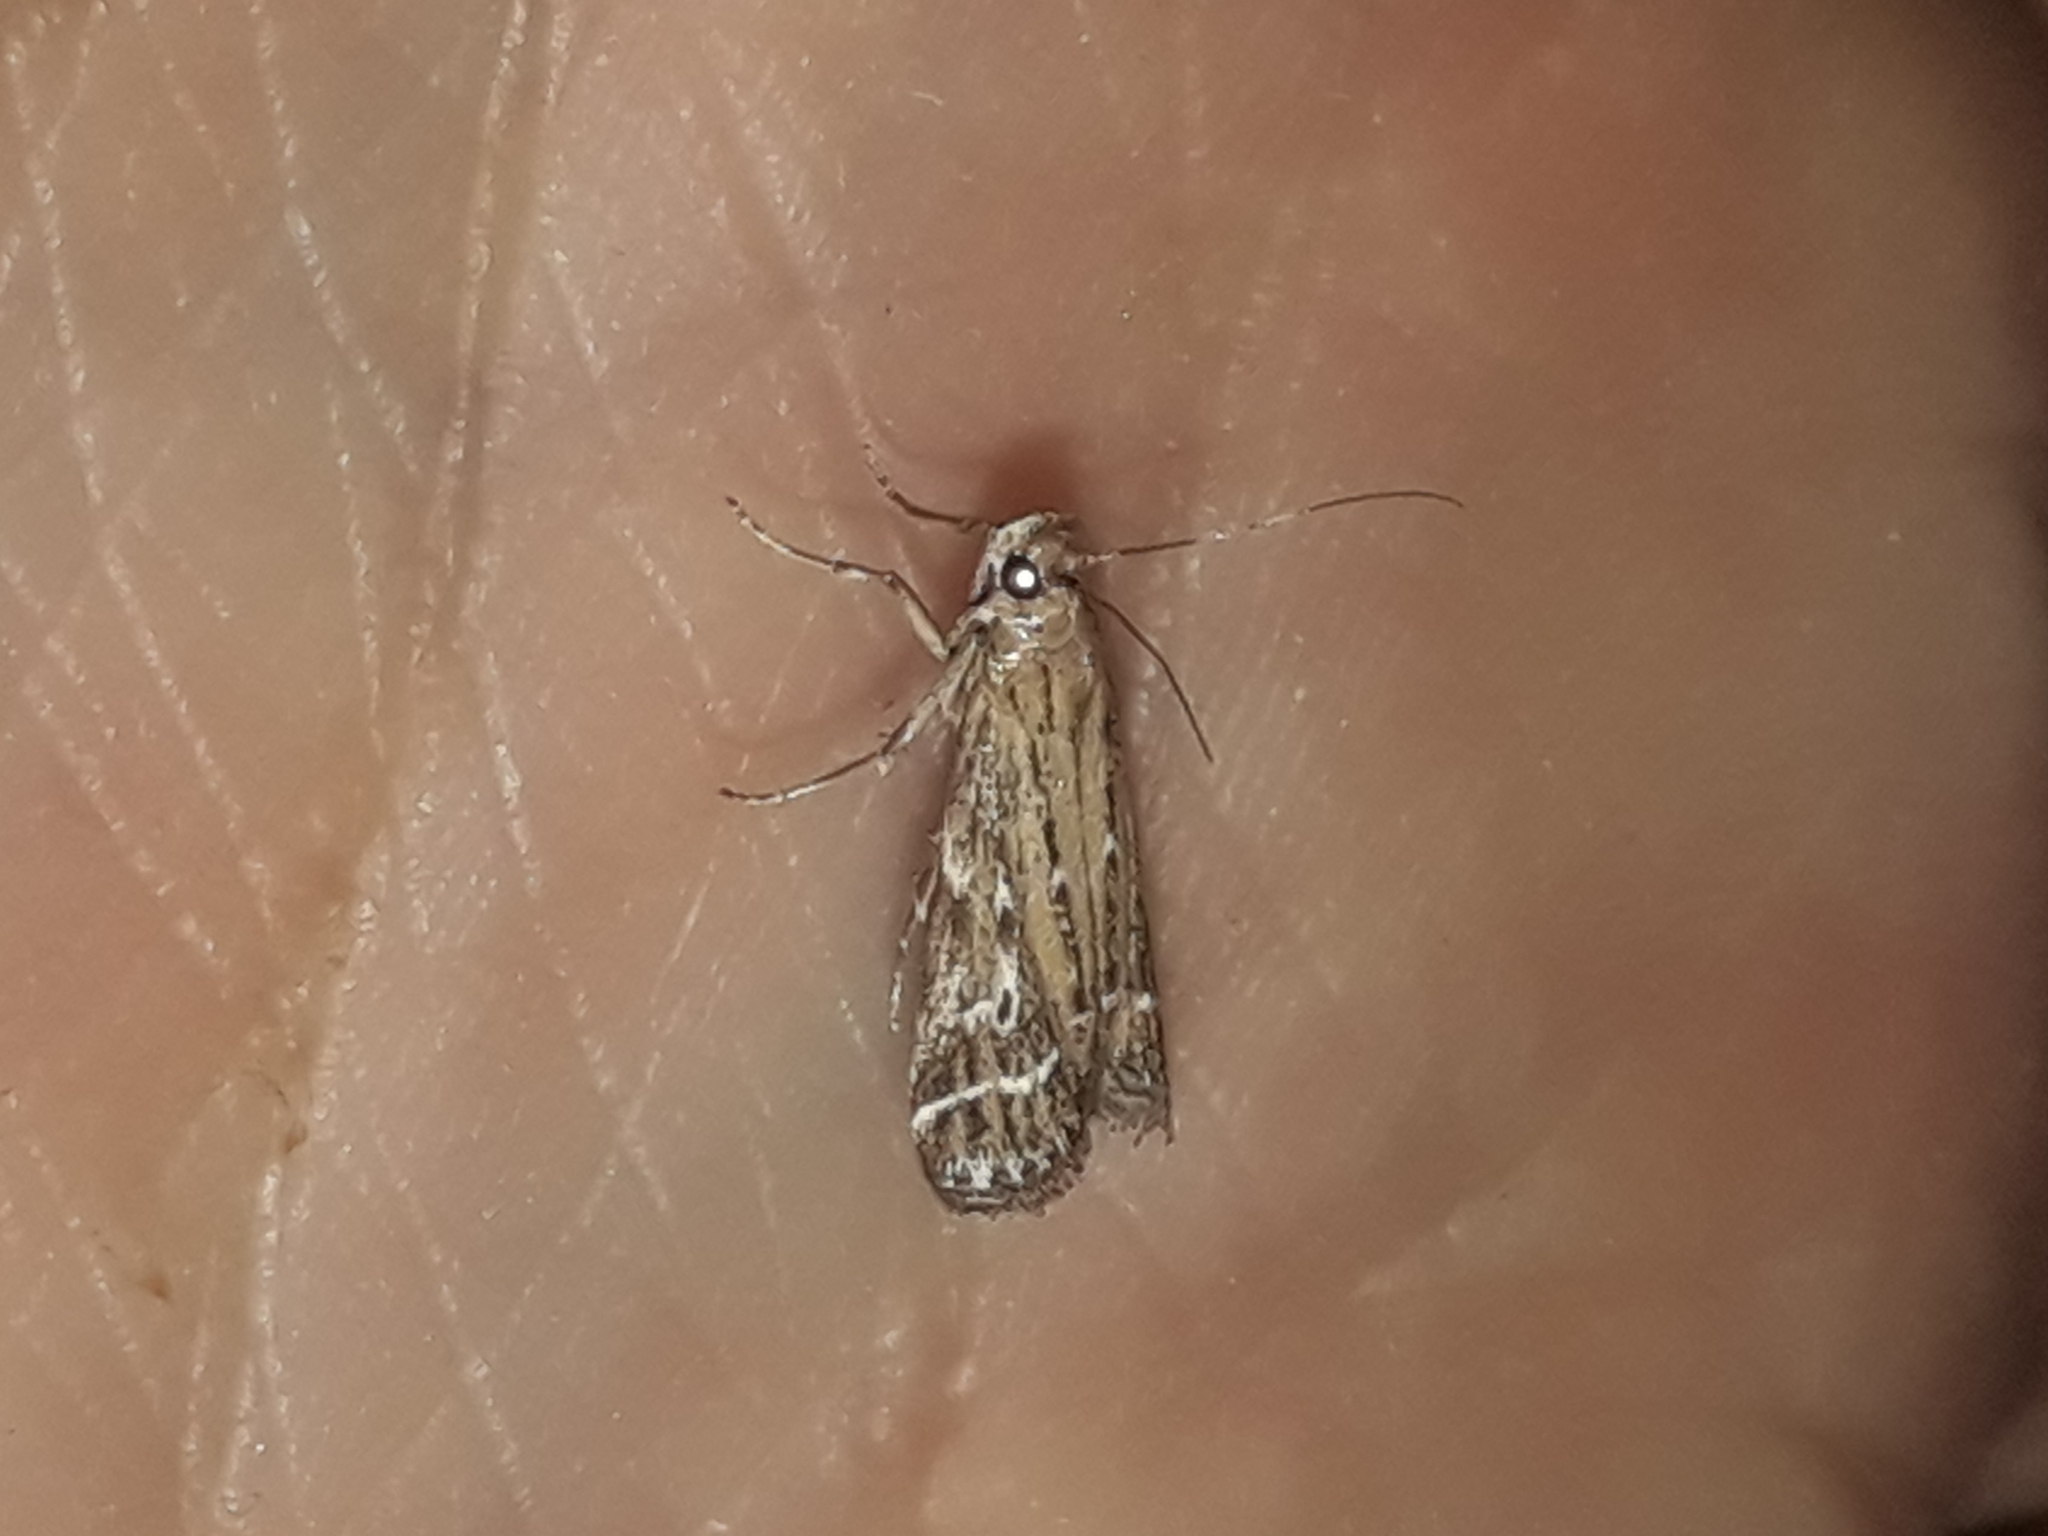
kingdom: Animalia
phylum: Arthropoda
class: Insecta
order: Lepidoptera
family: Pyralidae
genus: Pempelia
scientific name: Pempelia ornatella
